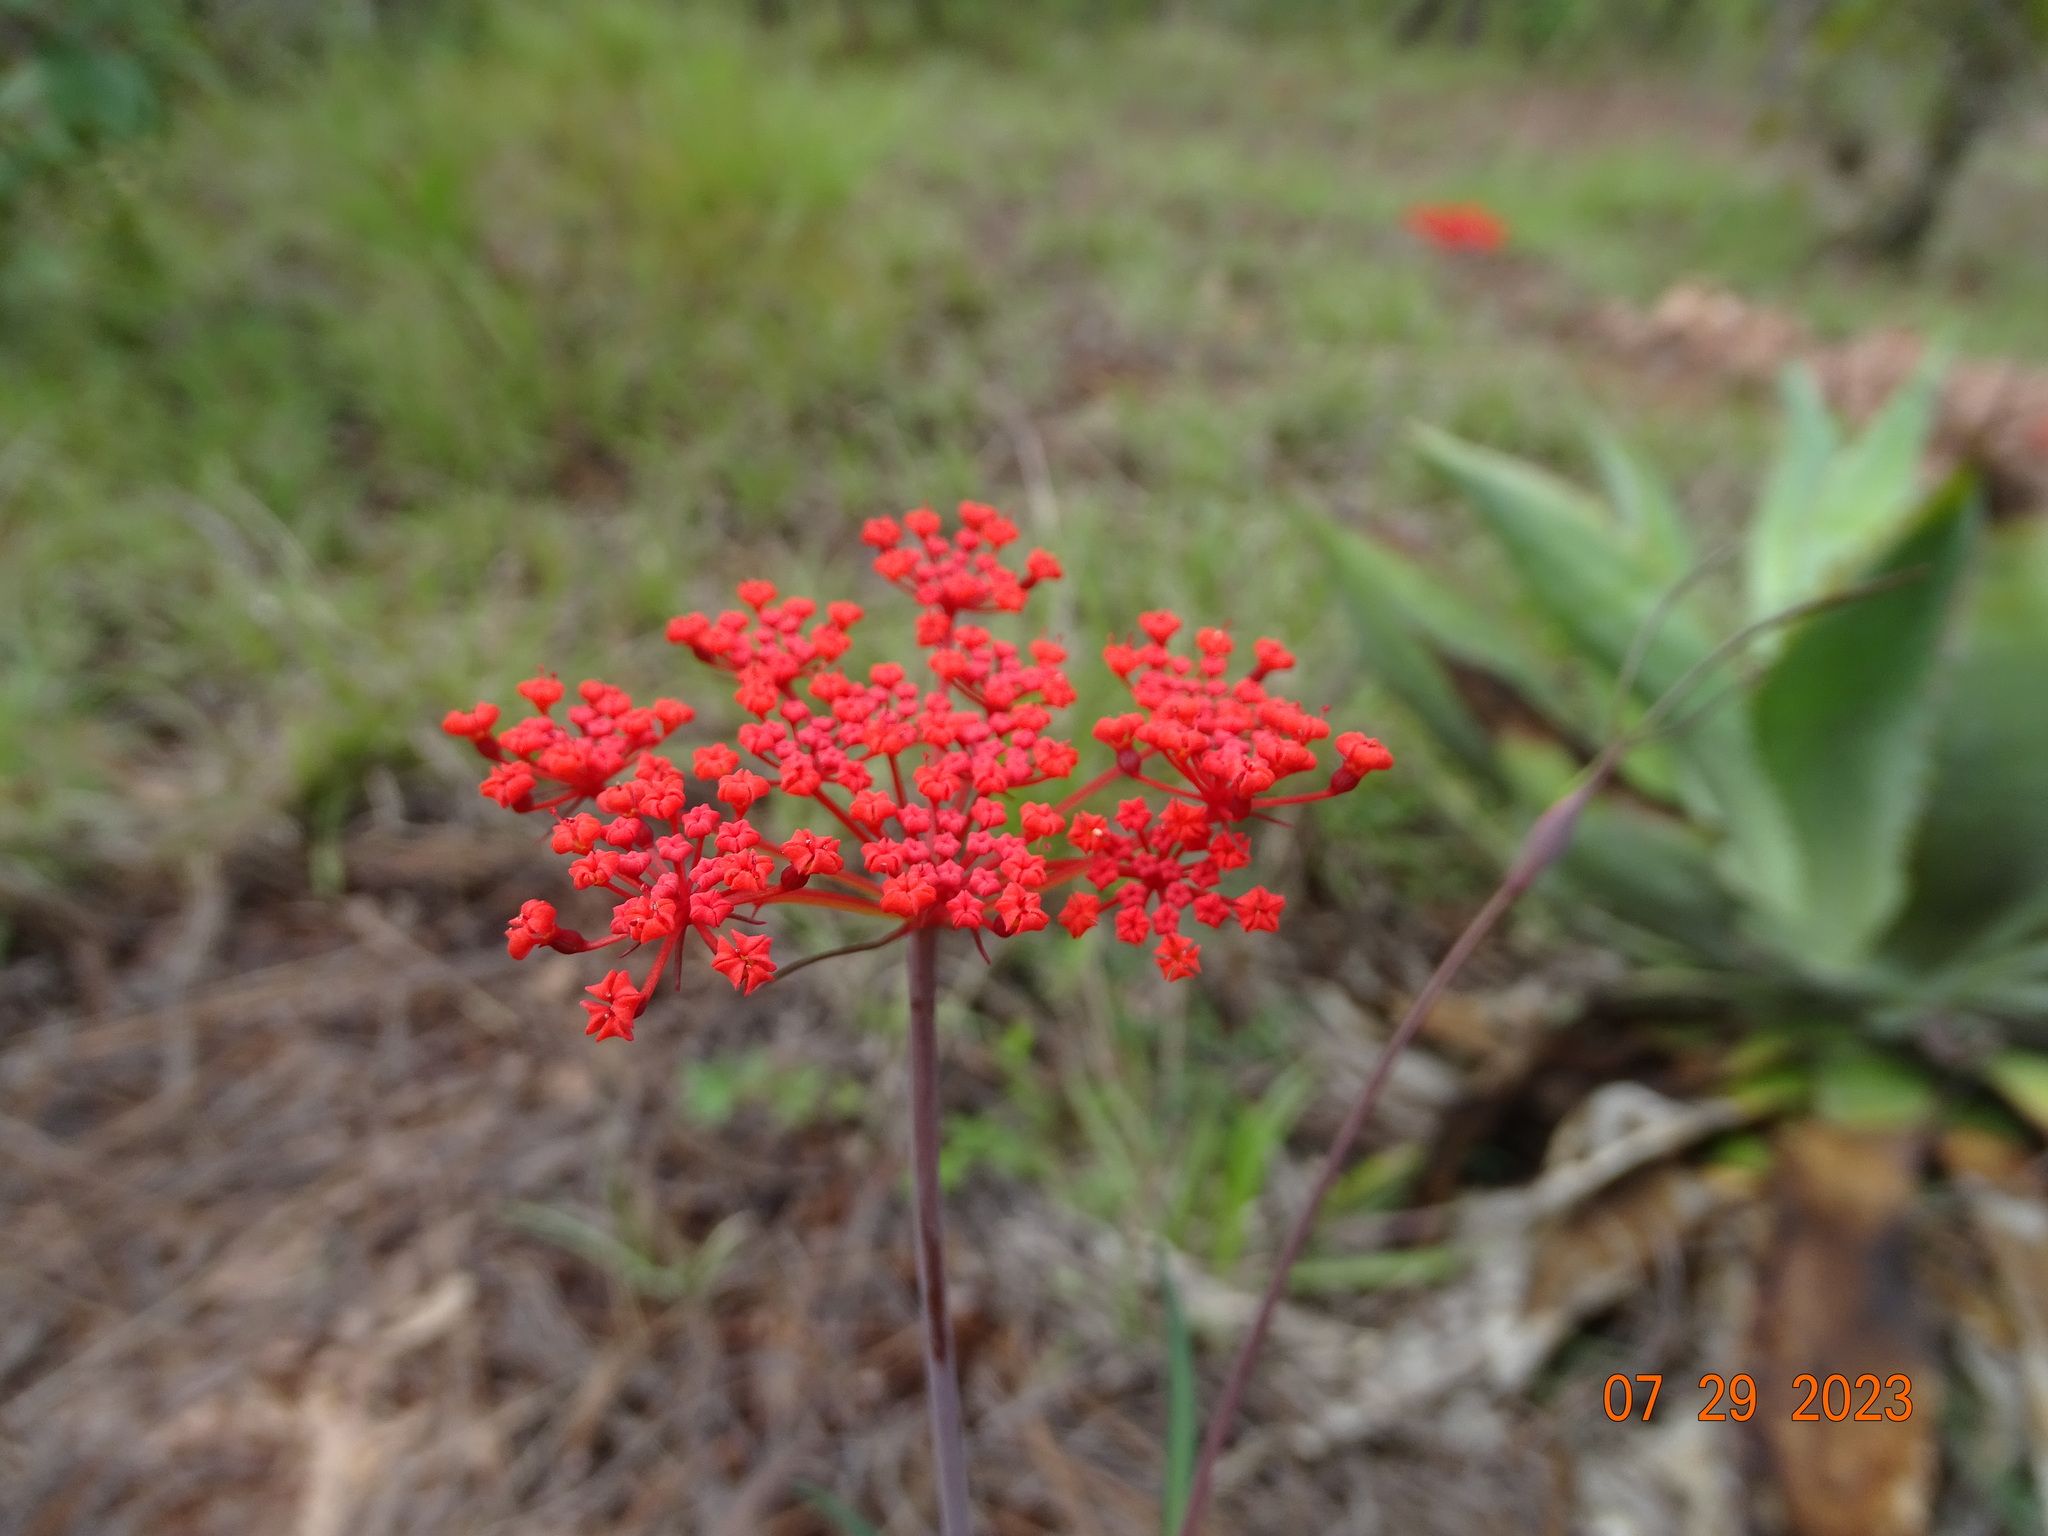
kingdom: Plantae
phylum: Tracheophyta
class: Magnoliopsida
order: Apiales
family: Apiaceae
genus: Prionosciadium
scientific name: Prionosciadium tamayoi
